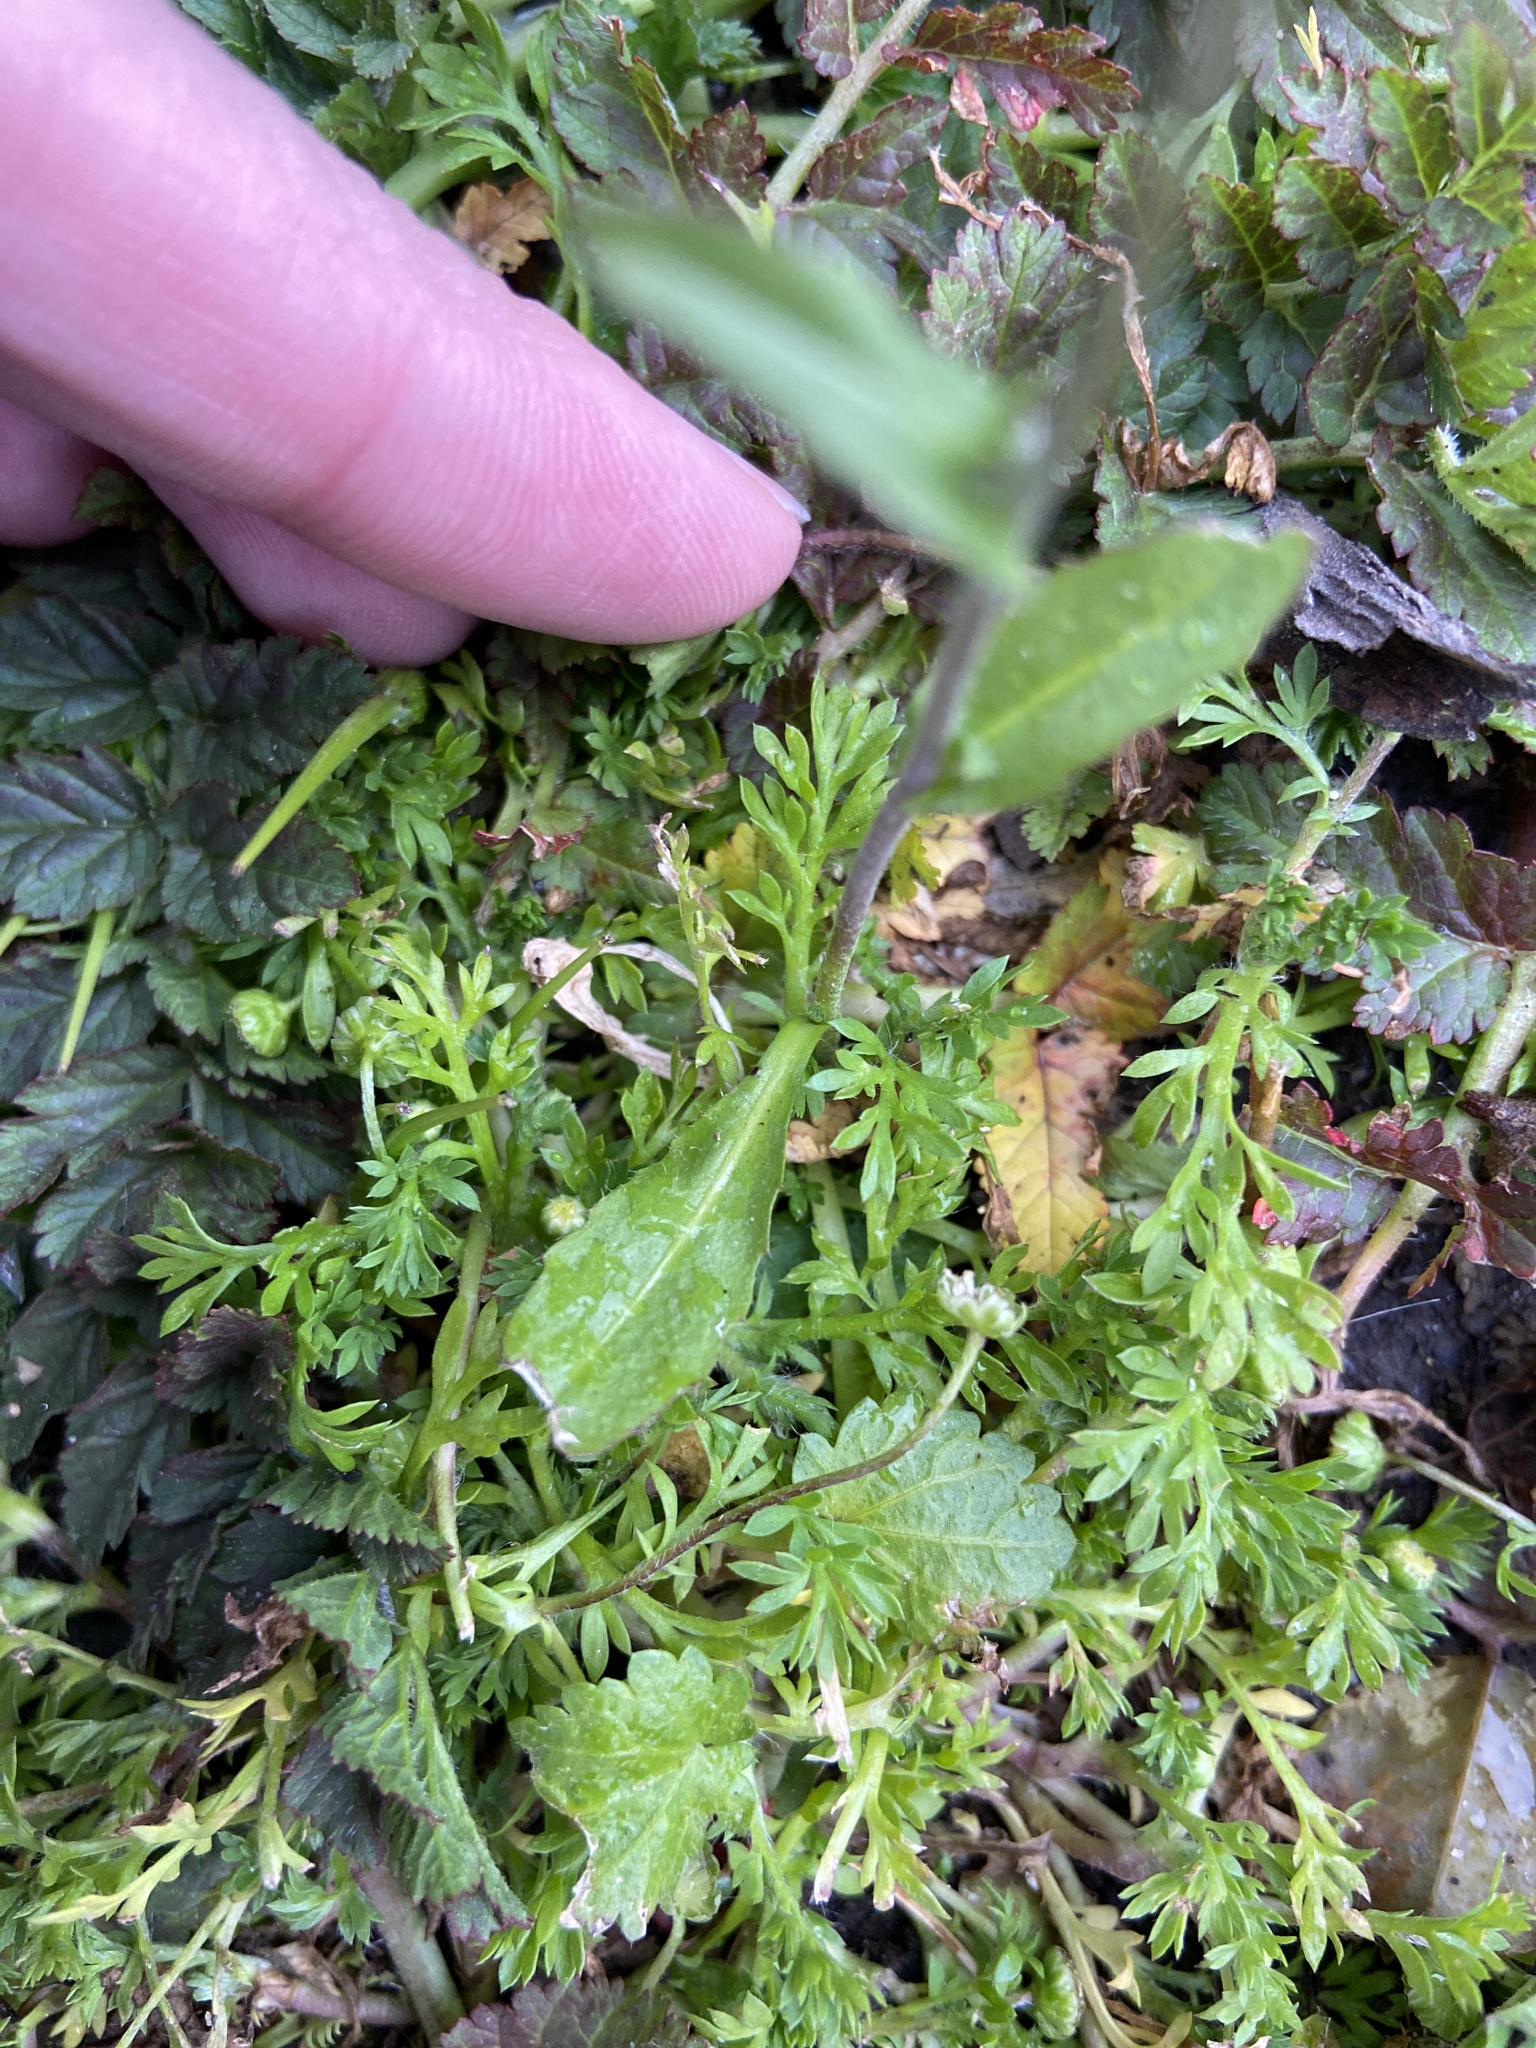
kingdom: Plantae
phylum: Tracheophyta
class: Magnoliopsida
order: Brassicales
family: Brassicaceae
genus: Capsella
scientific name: Capsella bursa-pastoris
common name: Shepherd's purse
